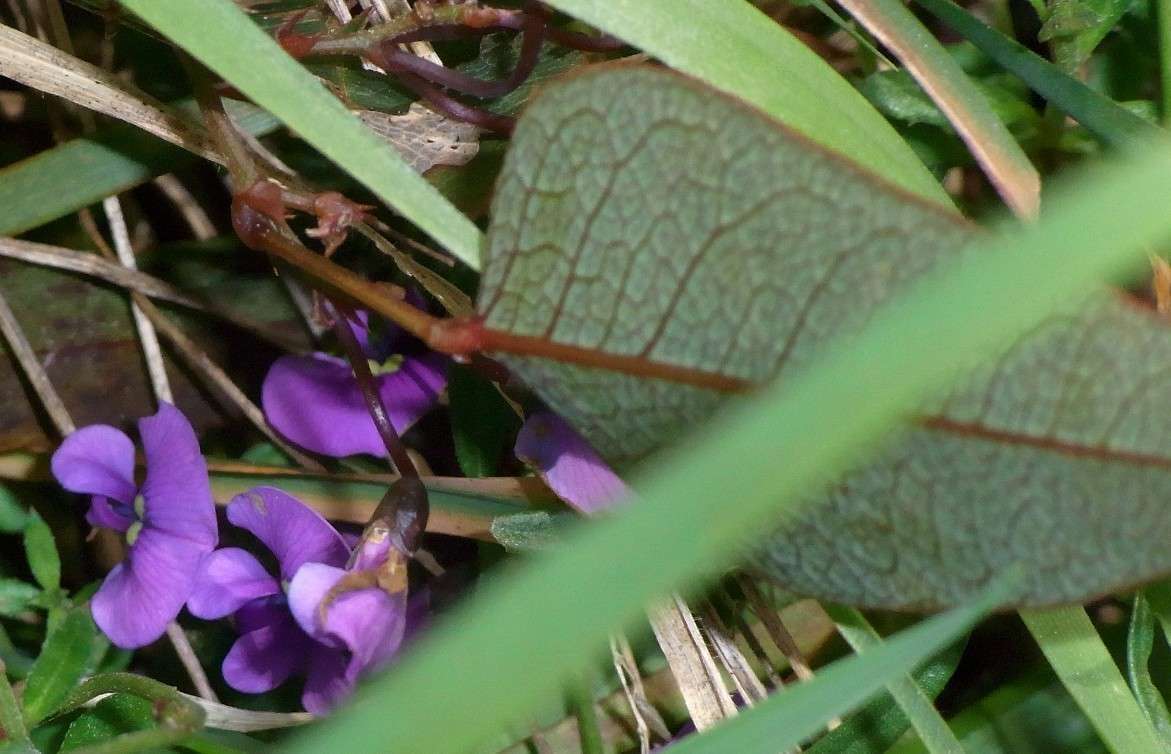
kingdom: Plantae
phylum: Tracheophyta
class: Magnoliopsida
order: Fabales
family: Fabaceae
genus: Hardenbergia
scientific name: Hardenbergia violacea
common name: Coral-pea
